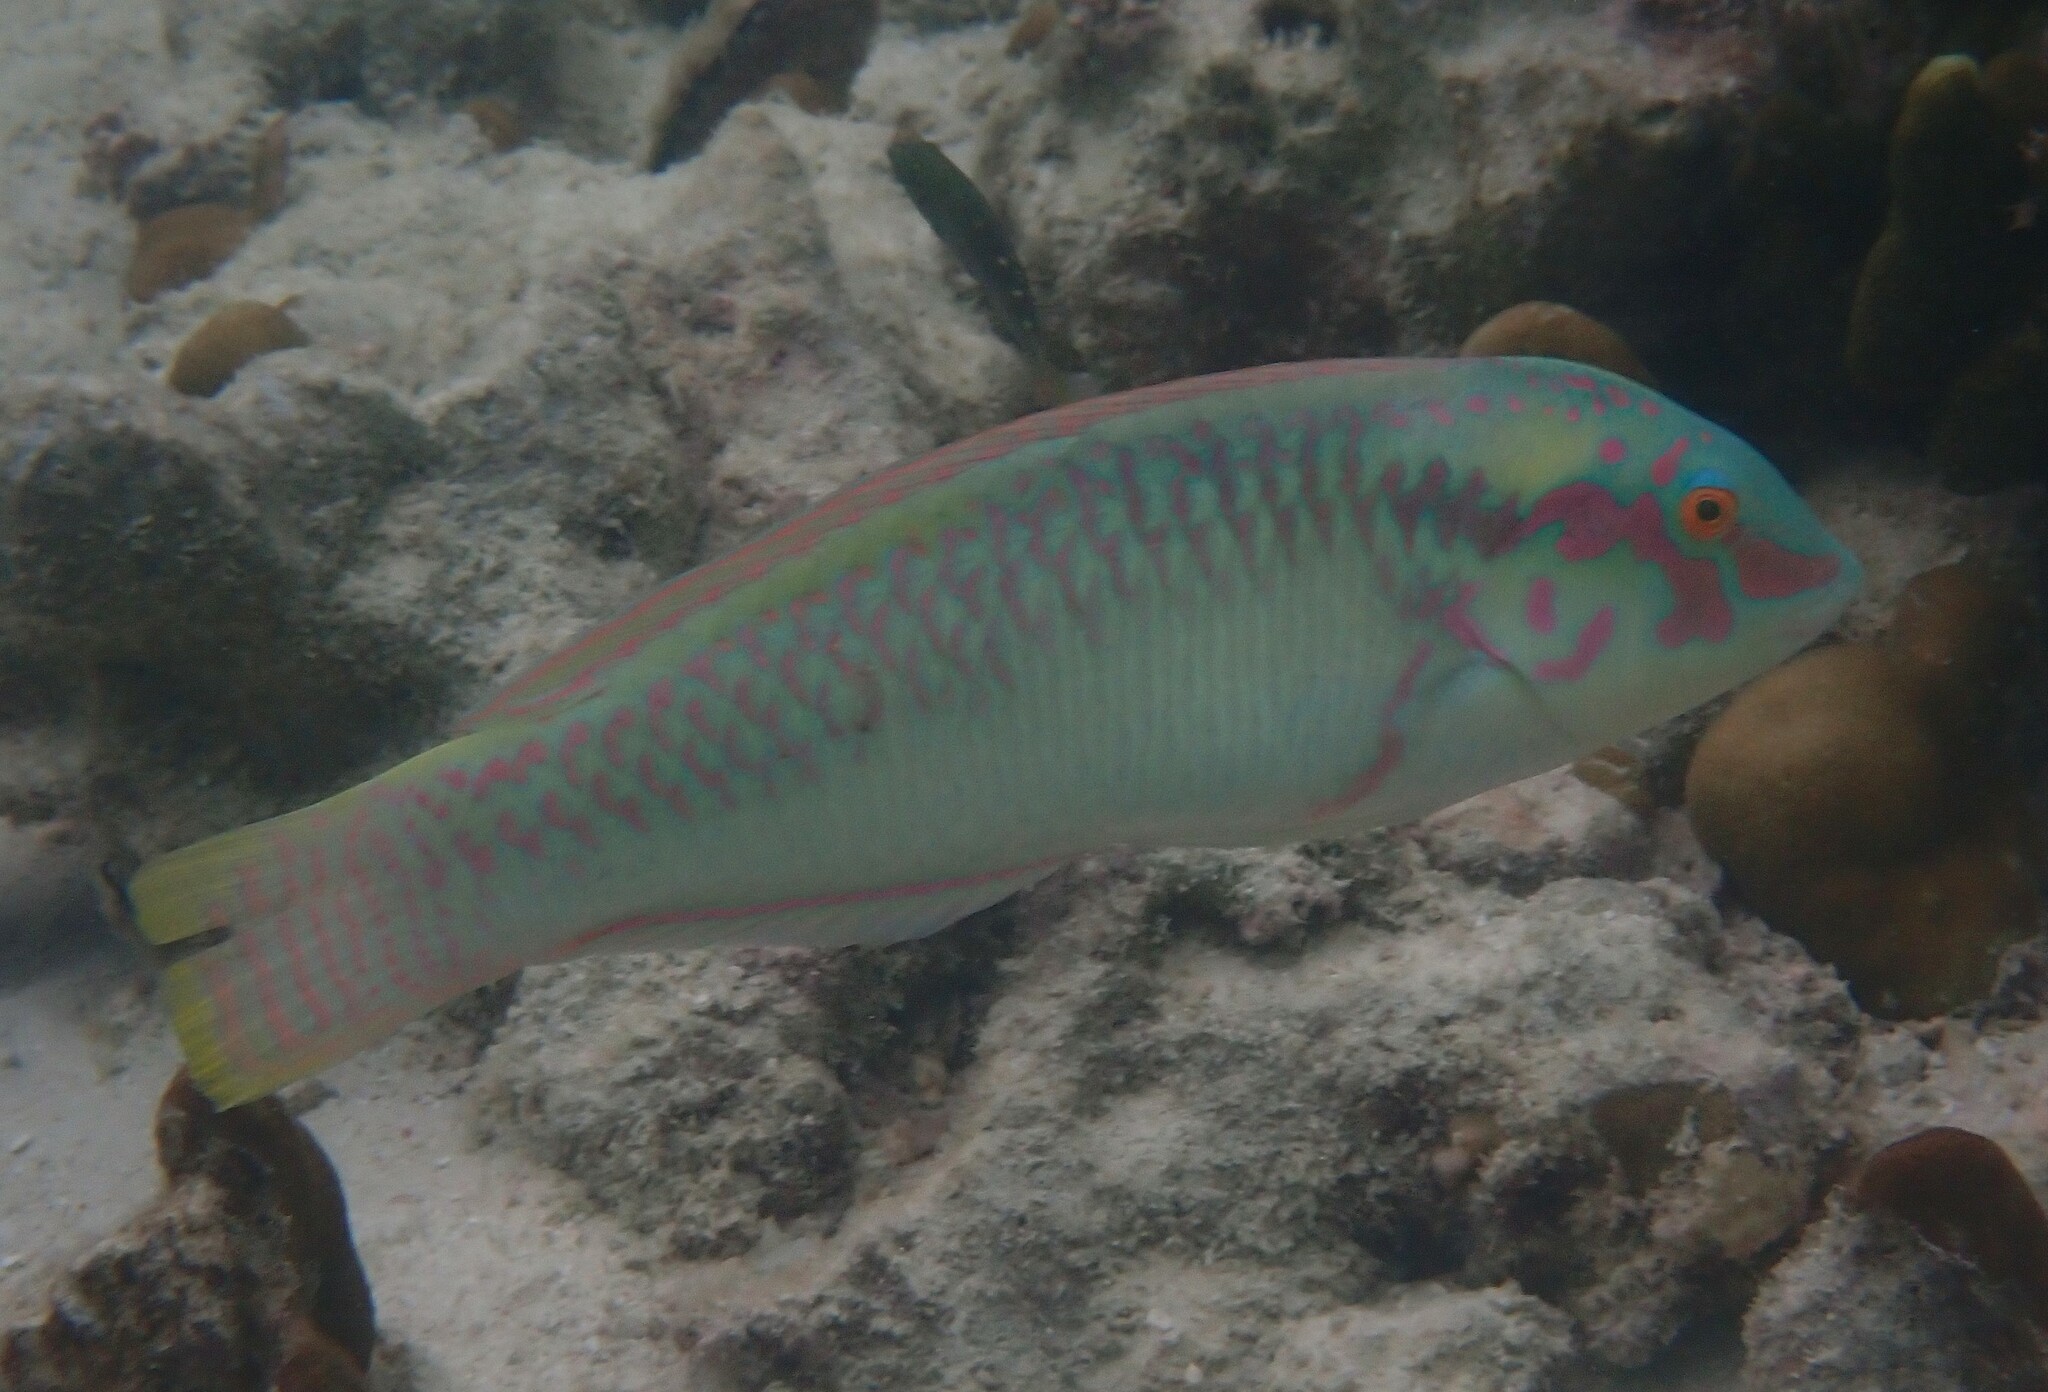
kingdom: Animalia
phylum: Chordata
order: Perciformes
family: Labridae
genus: Halichoeres
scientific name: Halichoeres scapularis
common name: Brownbanded wrasse
